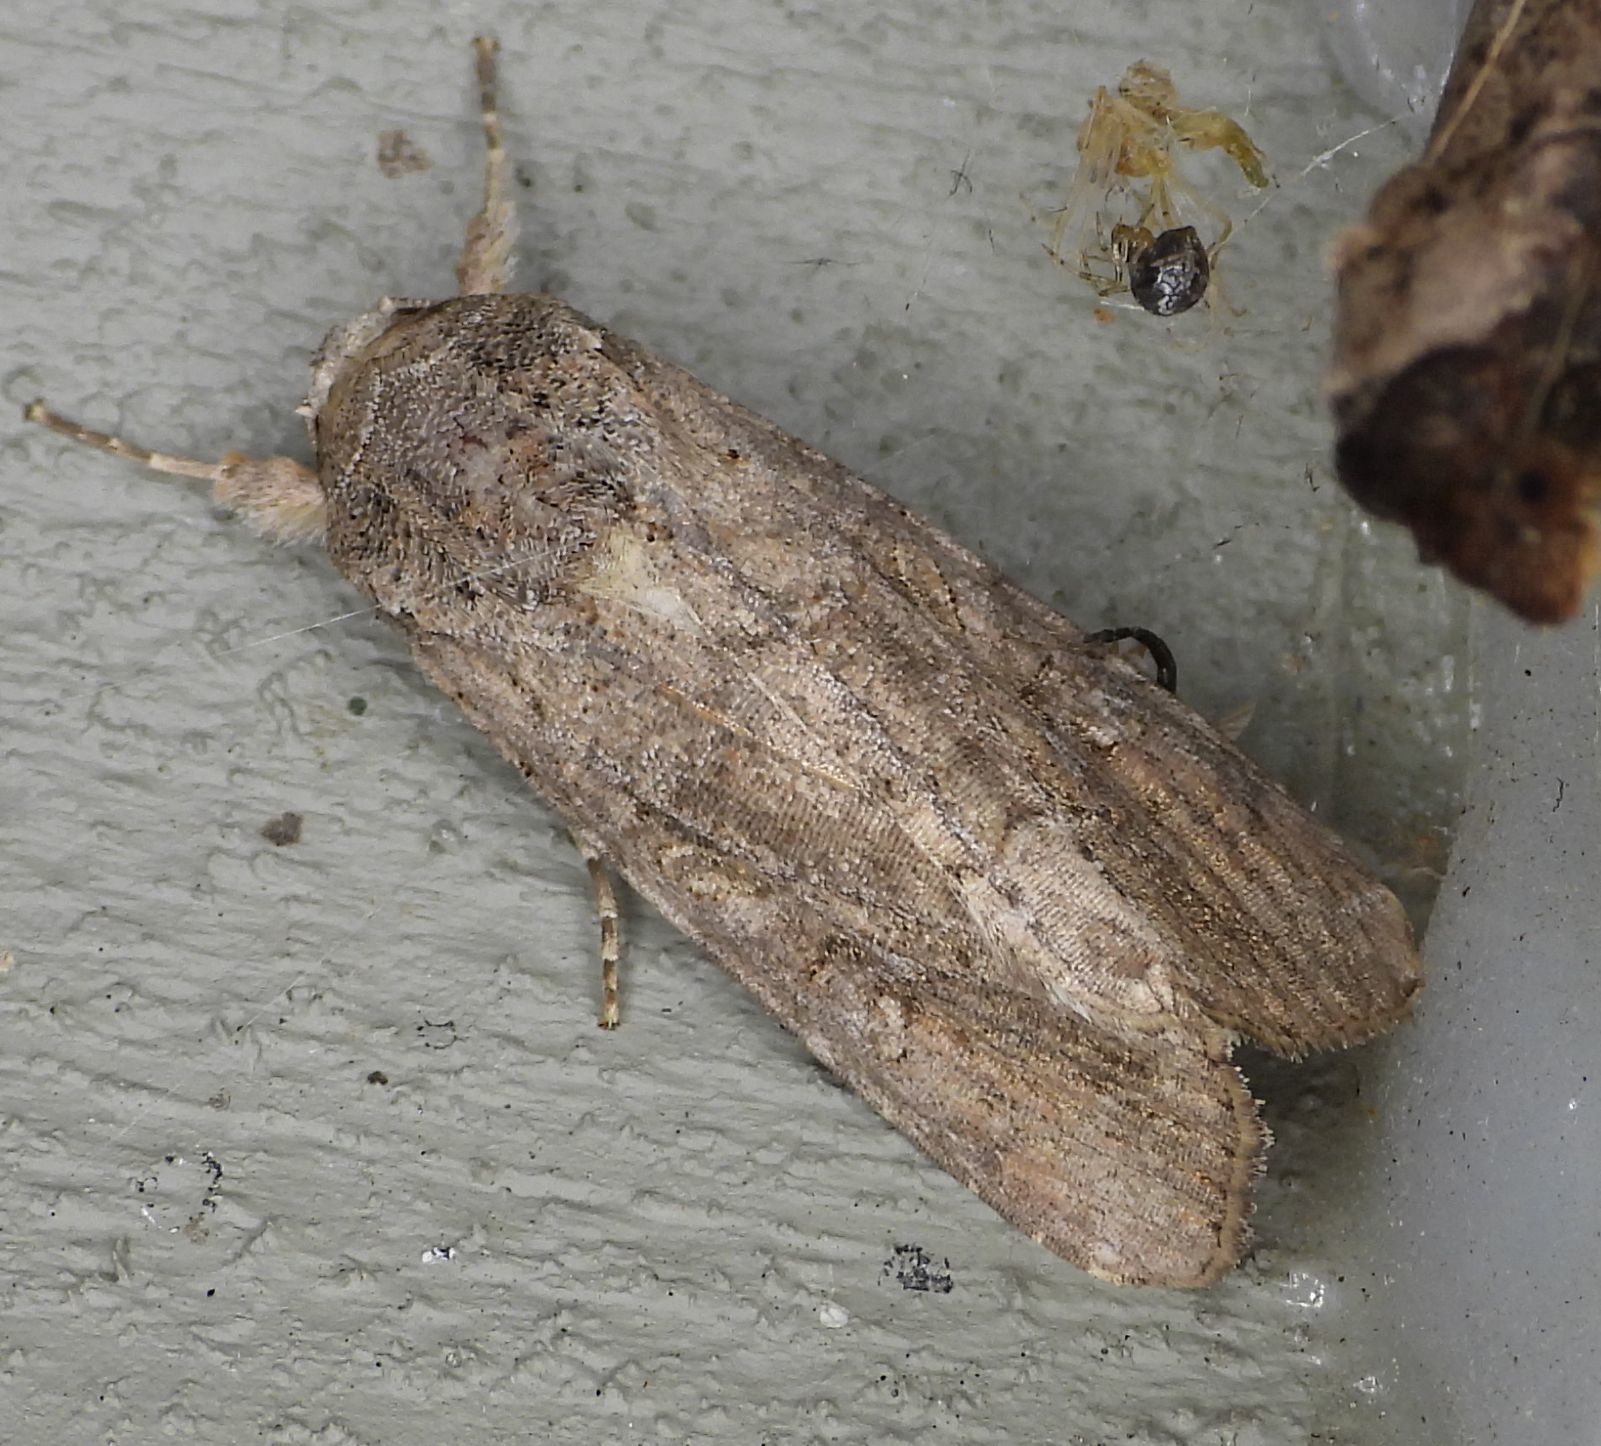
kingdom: Animalia
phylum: Arthropoda
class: Insecta
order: Lepidoptera
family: Noctuidae
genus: Spodoptera
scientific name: Spodoptera frugiperda
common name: Fall armyworm
